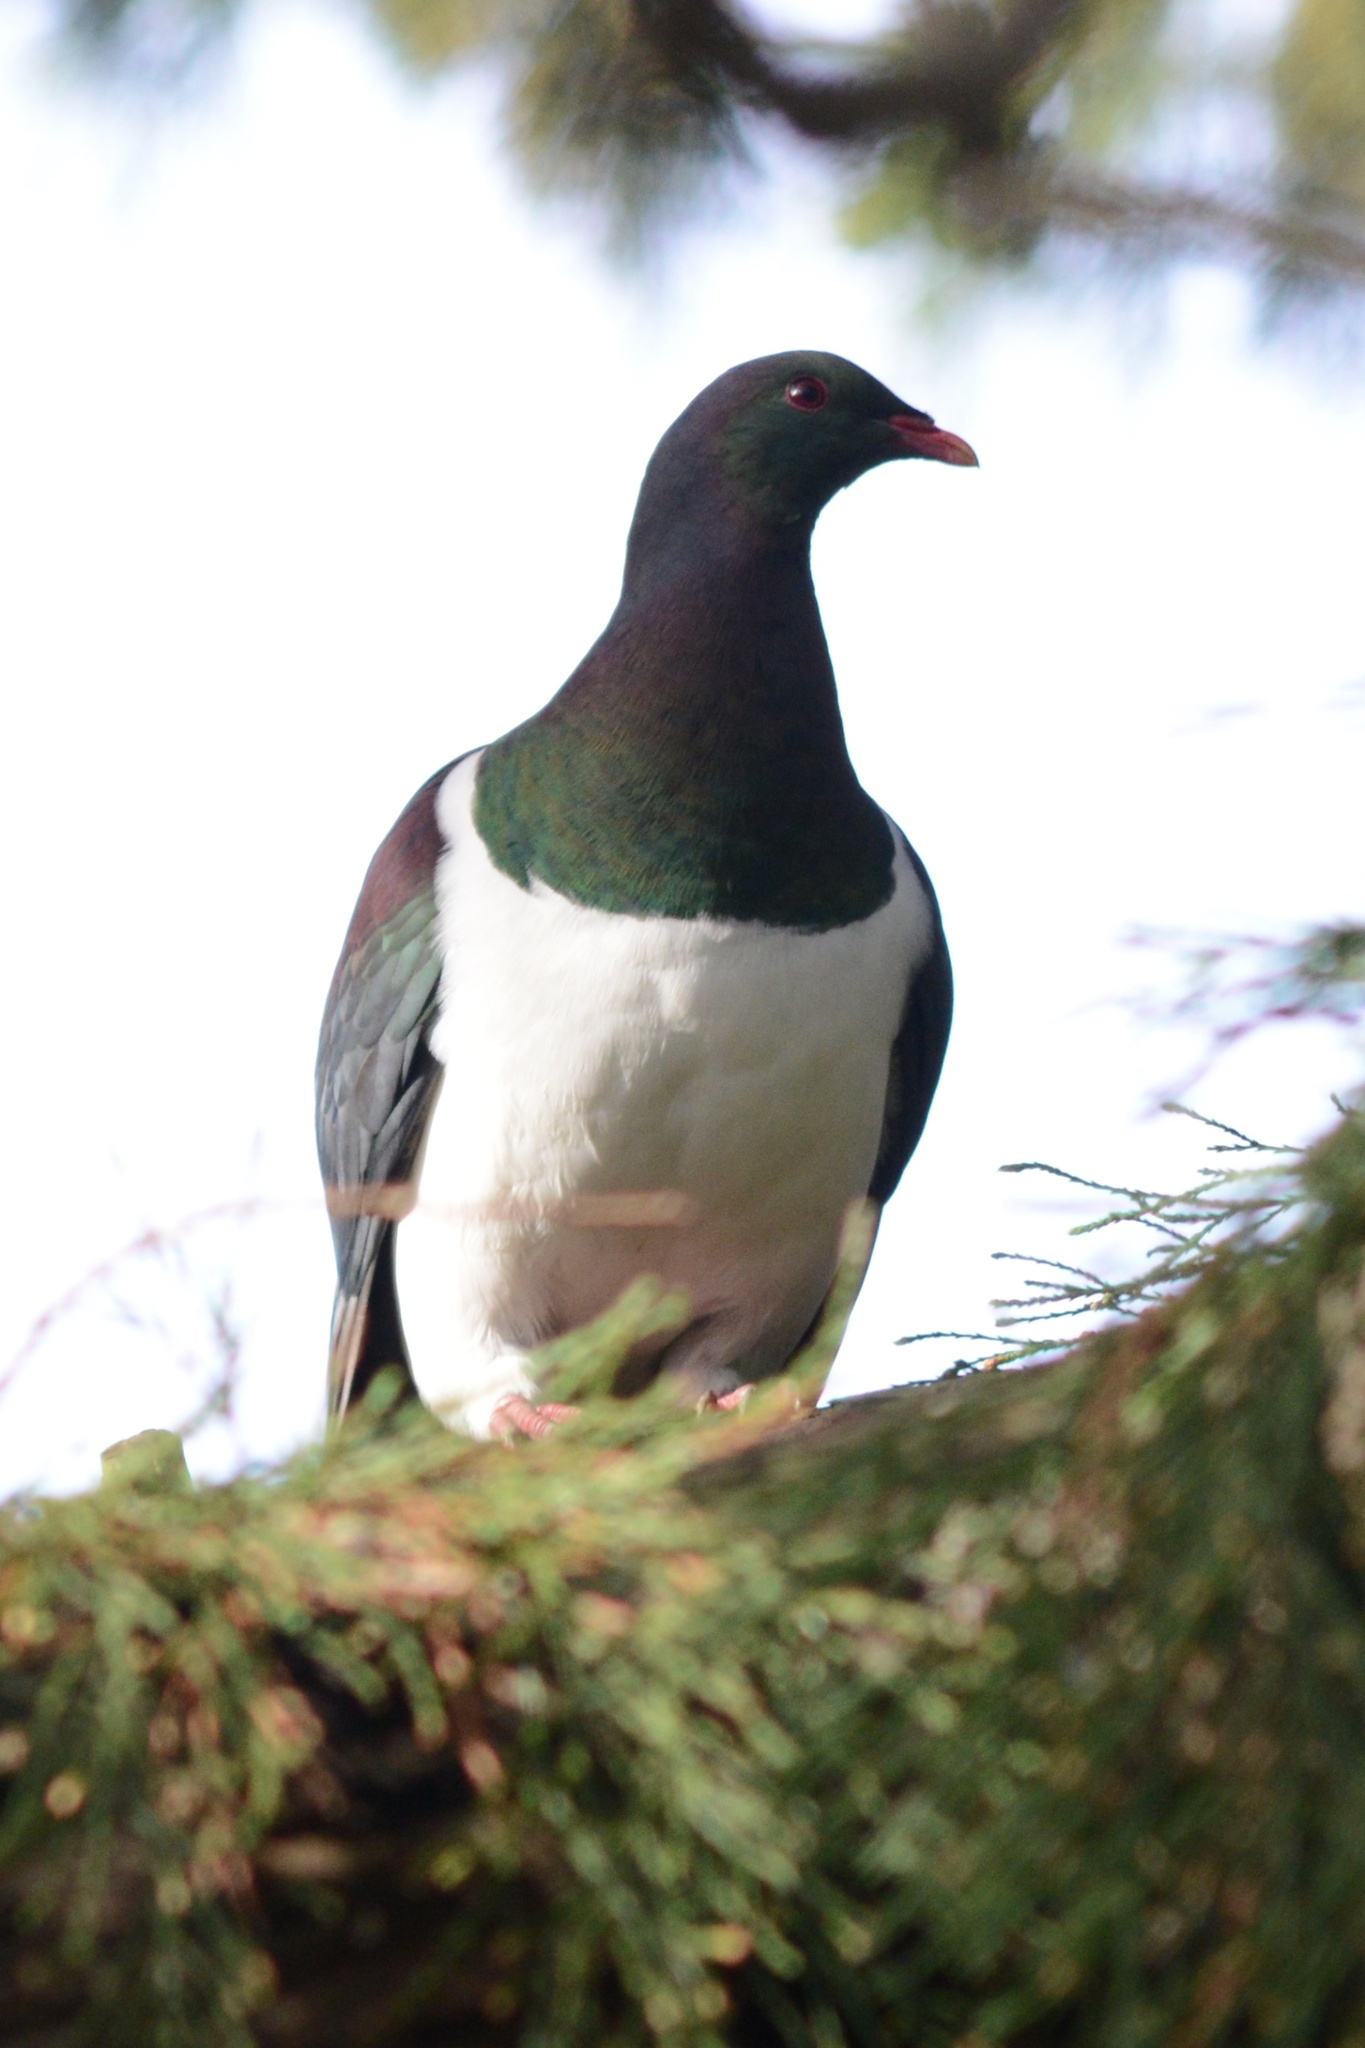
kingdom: Animalia
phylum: Chordata
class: Aves
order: Columbiformes
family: Columbidae
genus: Hemiphaga
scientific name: Hemiphaga novaeseelandiae
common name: New zealand pigeon
